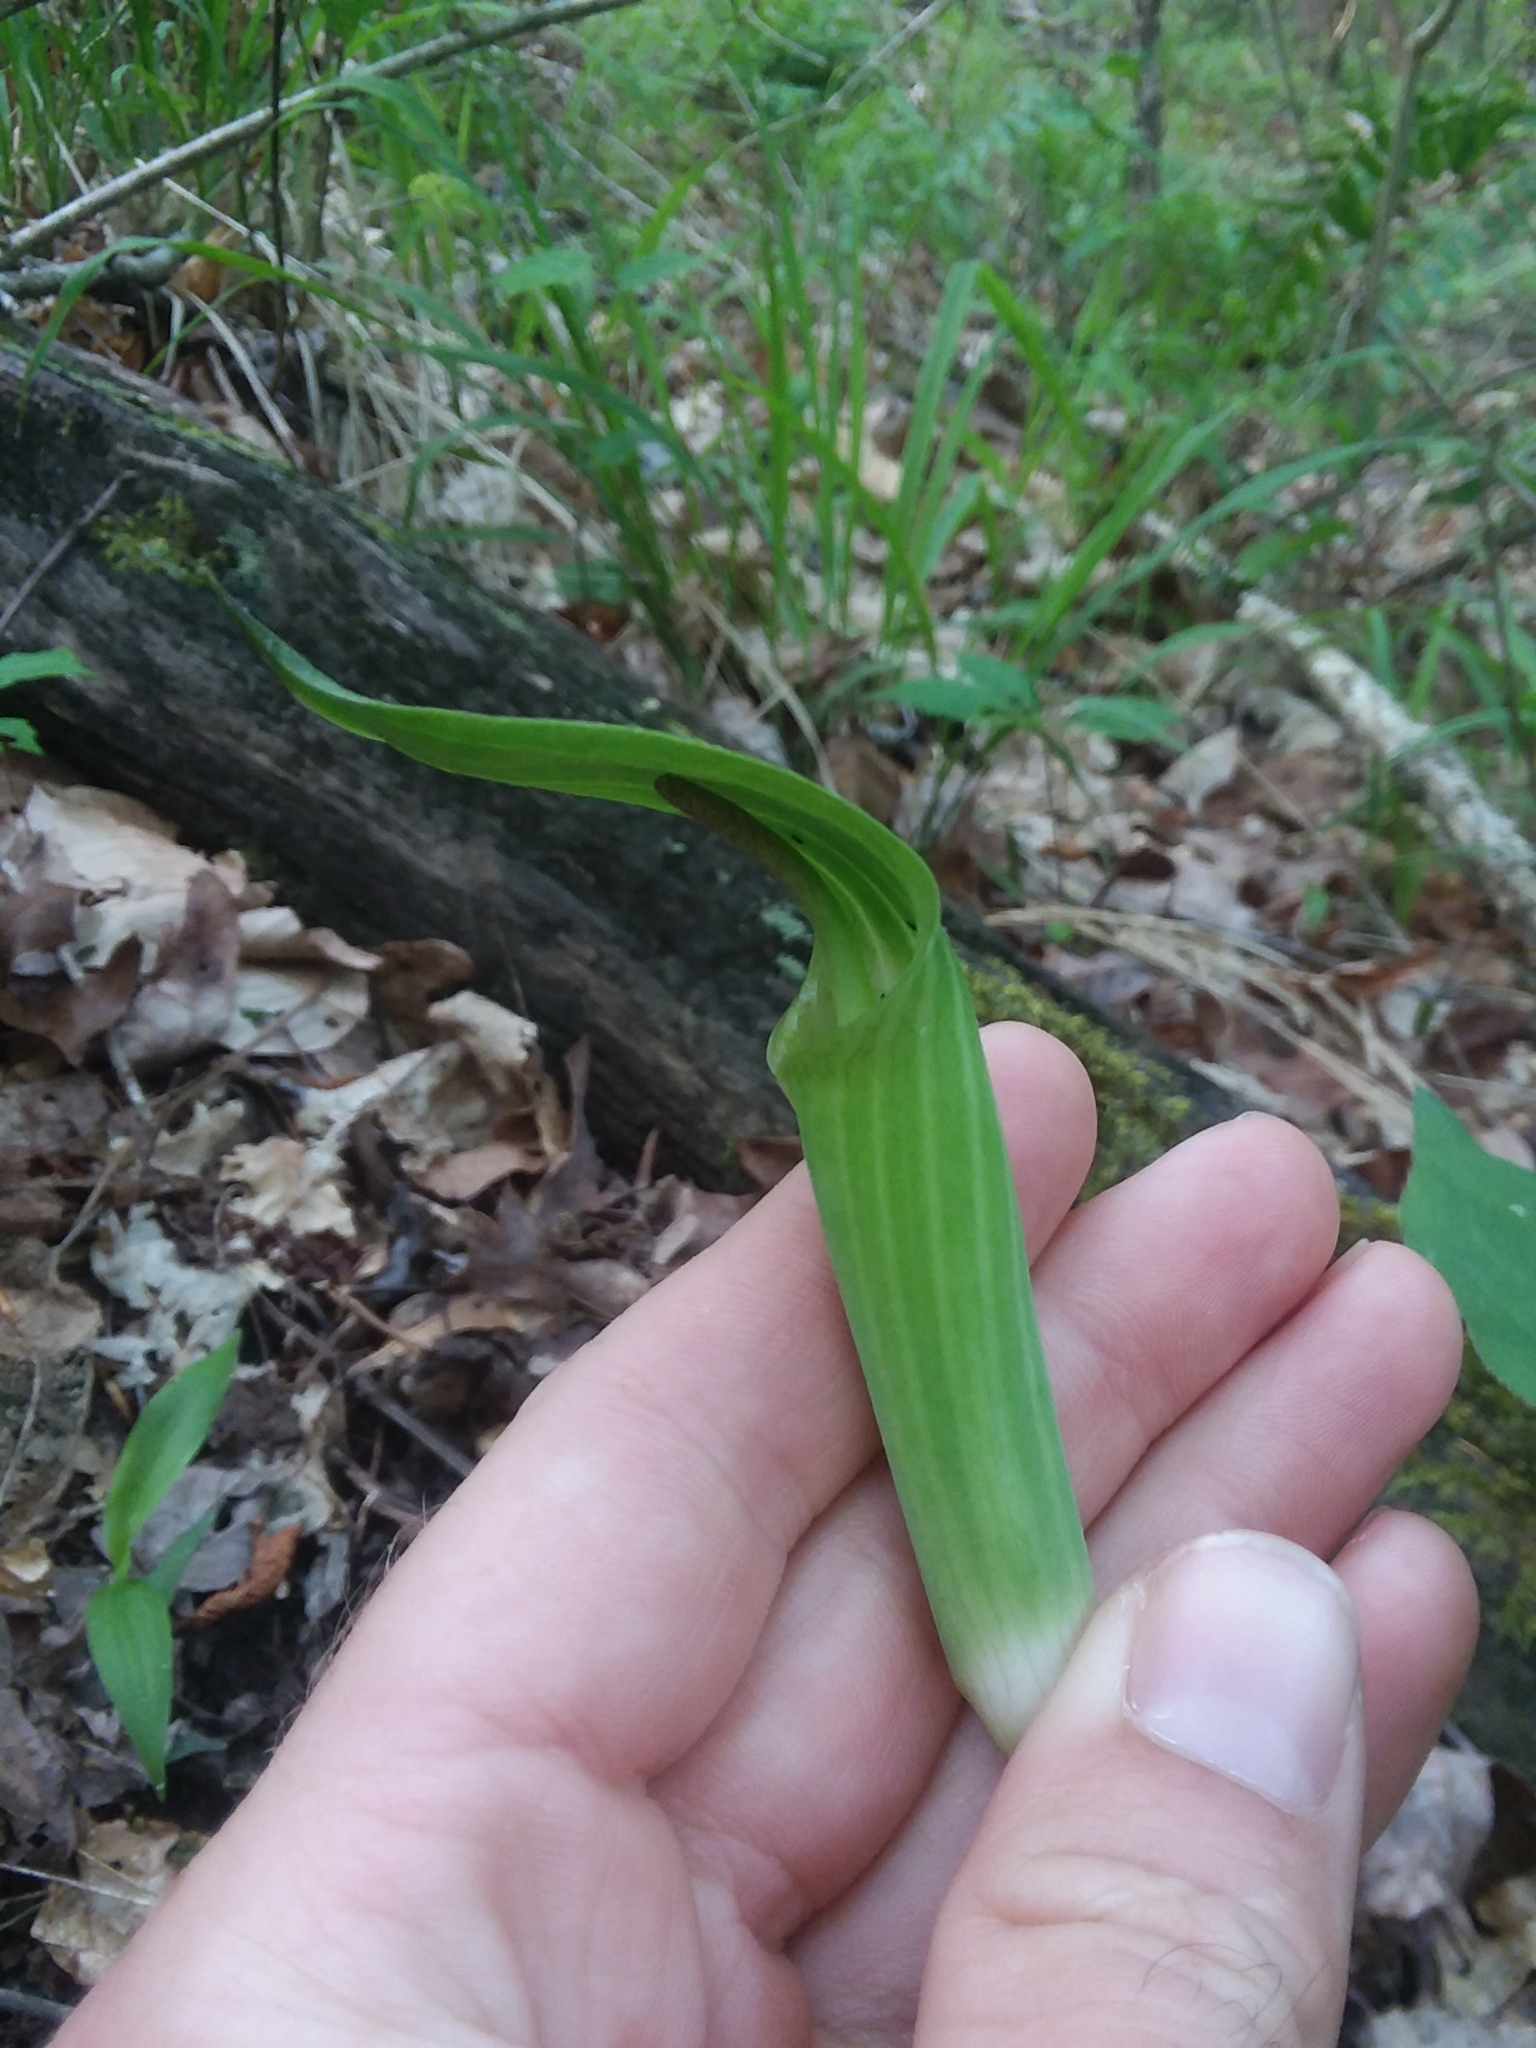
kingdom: Plantae
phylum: Tracheophyta
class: Liliopsida
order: Alismatales
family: Araceae
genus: Arisaema
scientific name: Arisaema quinatum
